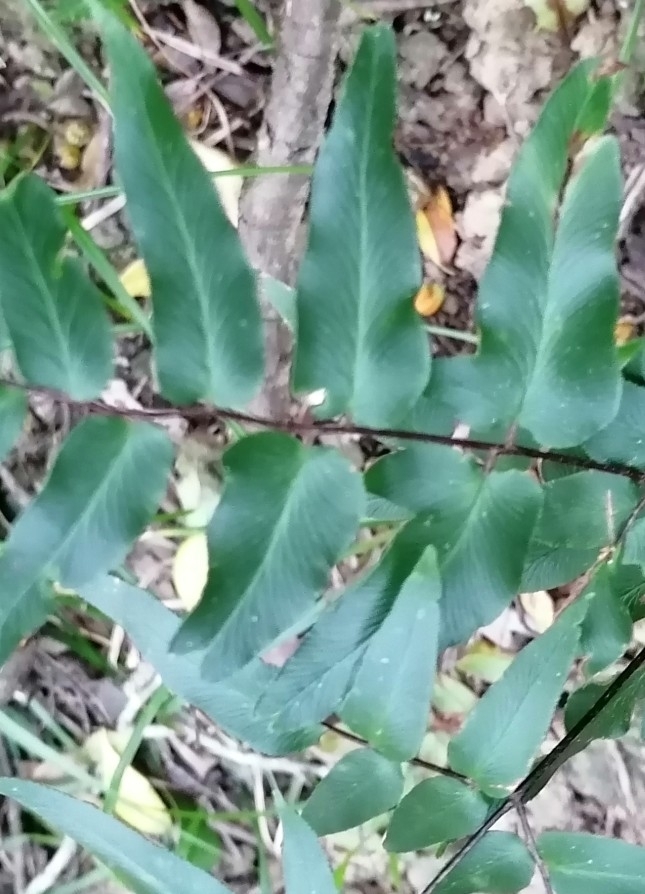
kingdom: Plantae
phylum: Tracheophyta
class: Polypodiopsida
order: Polypodiales
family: Pteridaceae
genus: Cheilanthes
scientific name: Cheilanthes viridis
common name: Green cliffbrake
